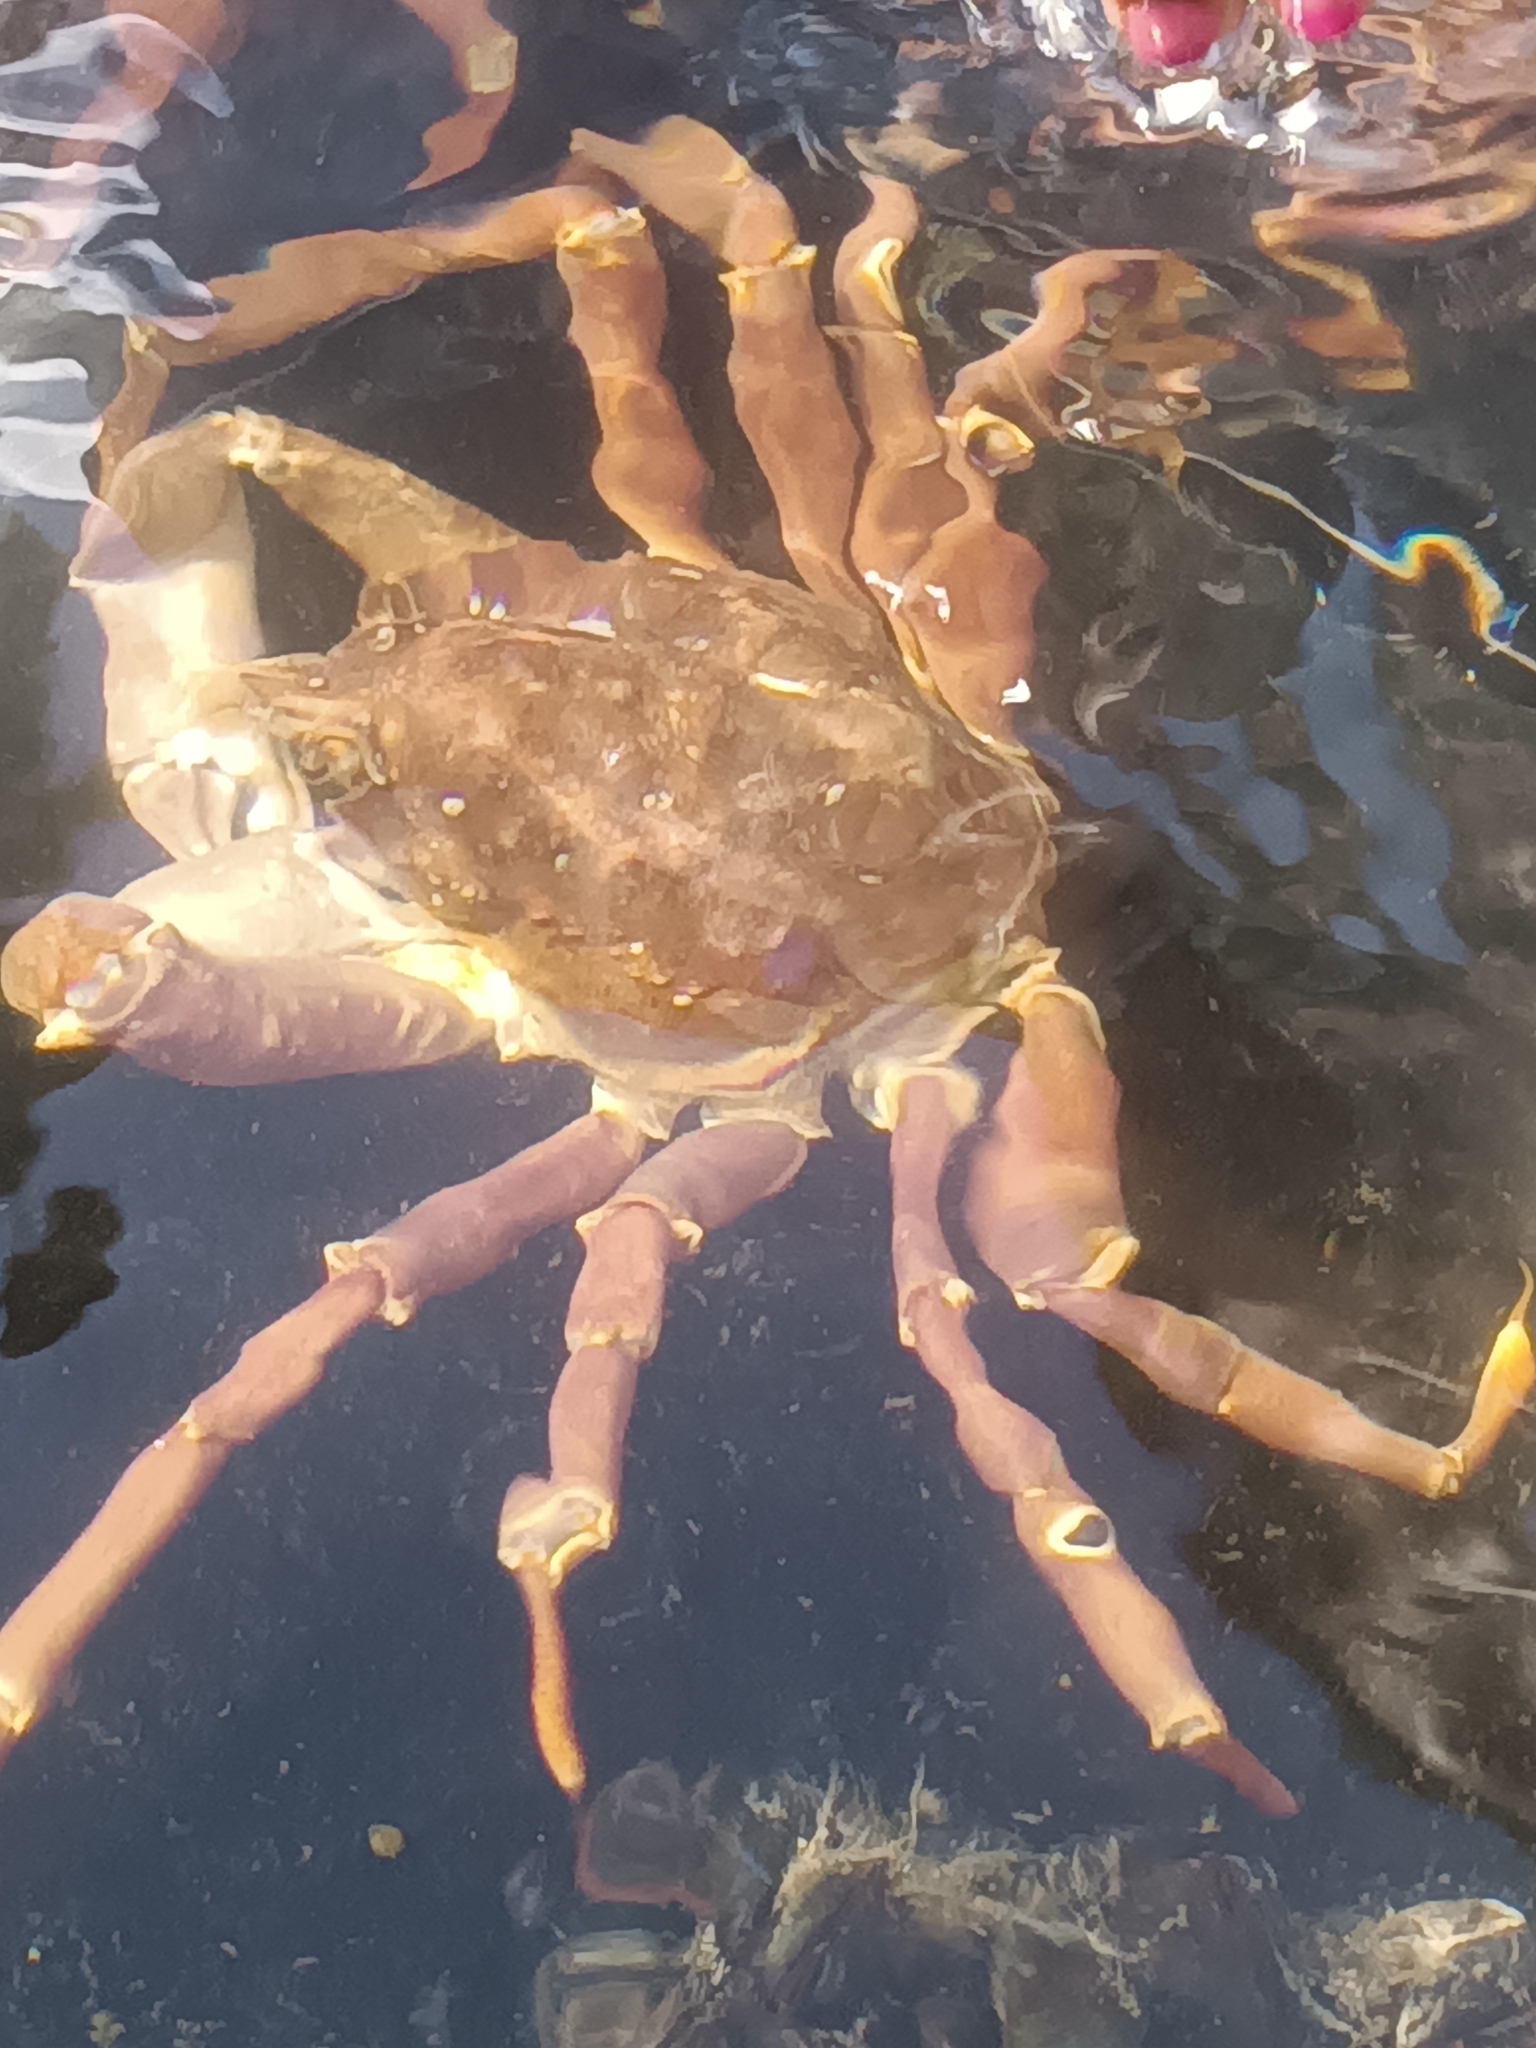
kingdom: Animalia
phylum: Arthropoda
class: Malacostraca
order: Decapoda
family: Oregoniidae
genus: Hyas
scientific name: Hyas araneus
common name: Great spider crab
